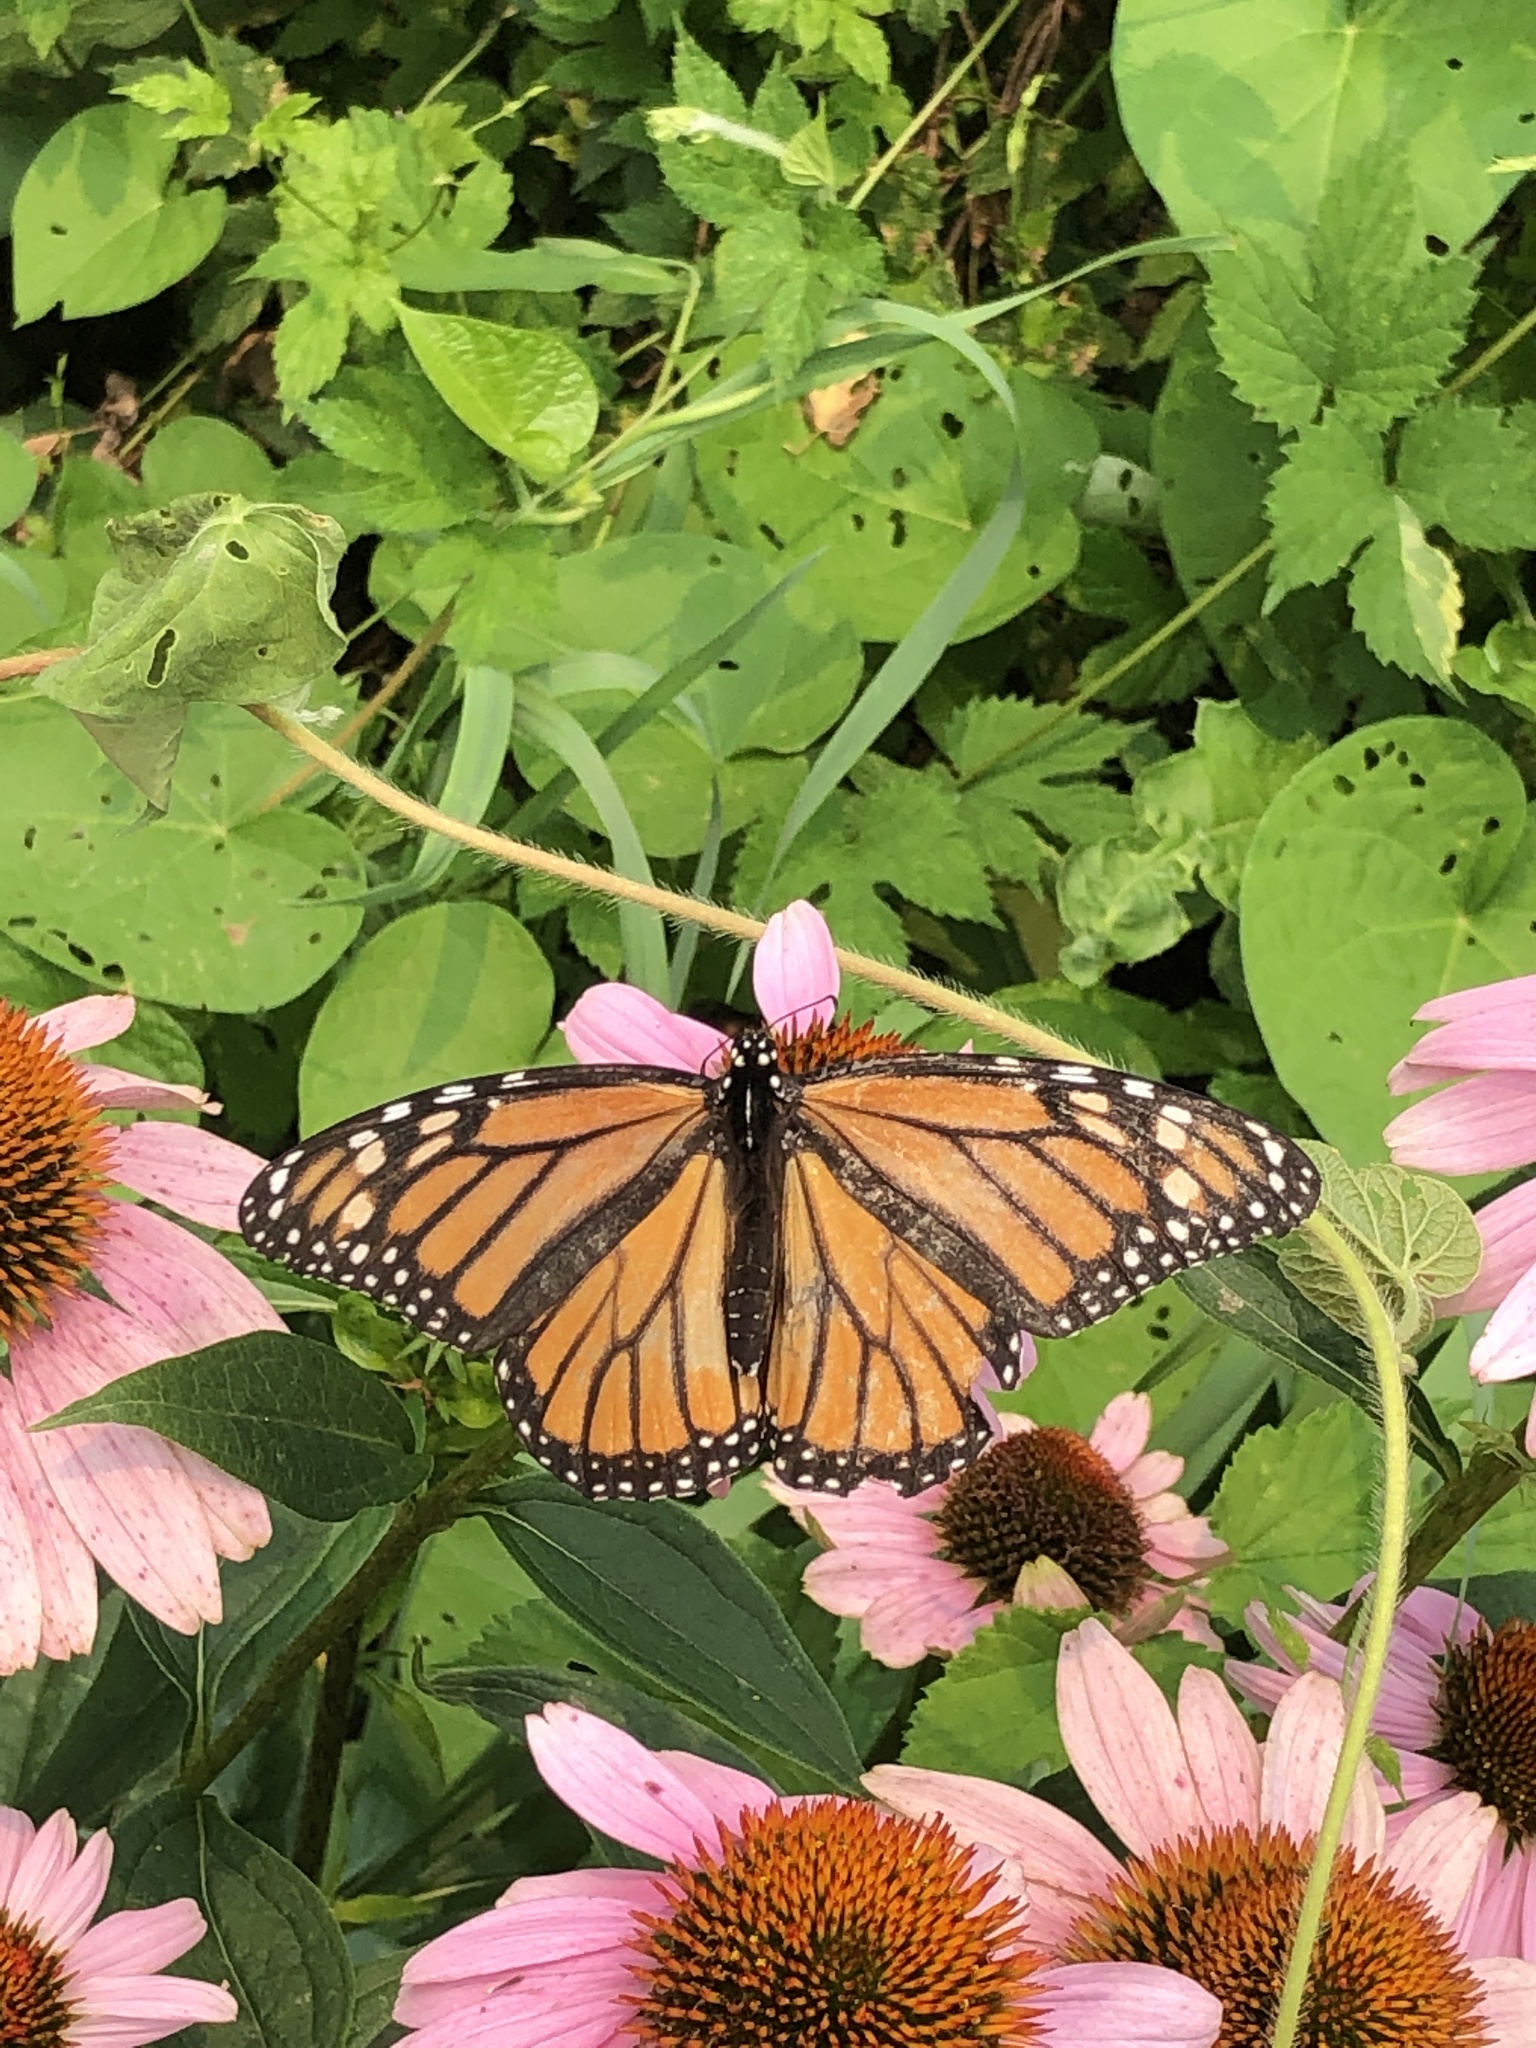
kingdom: Animalia
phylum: Arthropoda
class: Insecta
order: Lepidoptera
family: Nymphalidae
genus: Danaus
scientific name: Danaus plexippus
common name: Monarch
